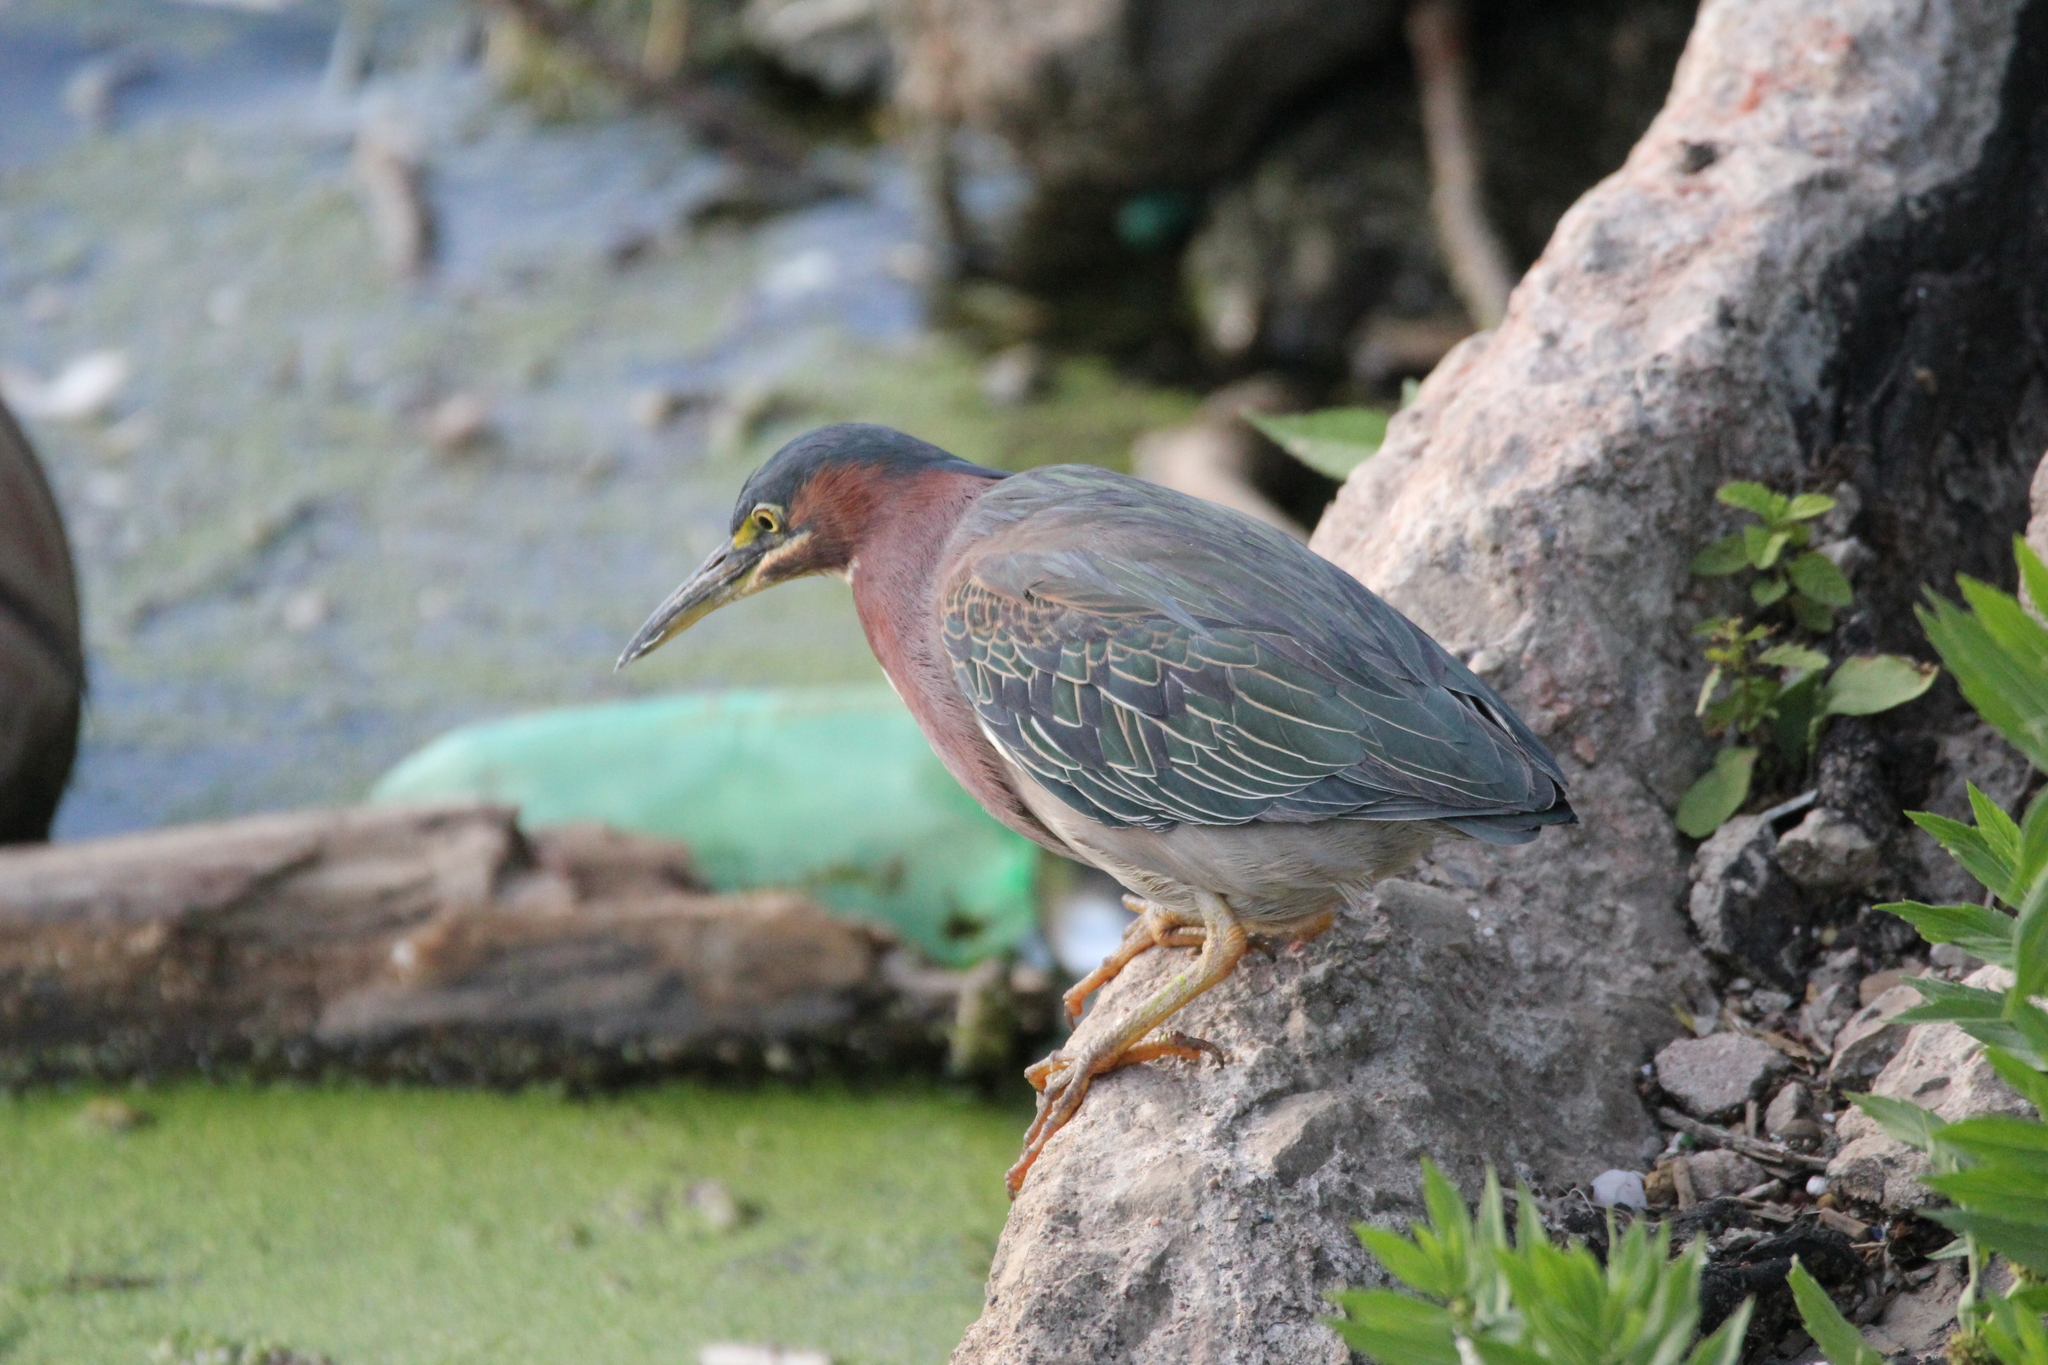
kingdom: Animalia
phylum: Chordata
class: Aves
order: Pelecaniformes
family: Ardeidae
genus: Butorides
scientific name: Butorides virescens
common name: Green heron
